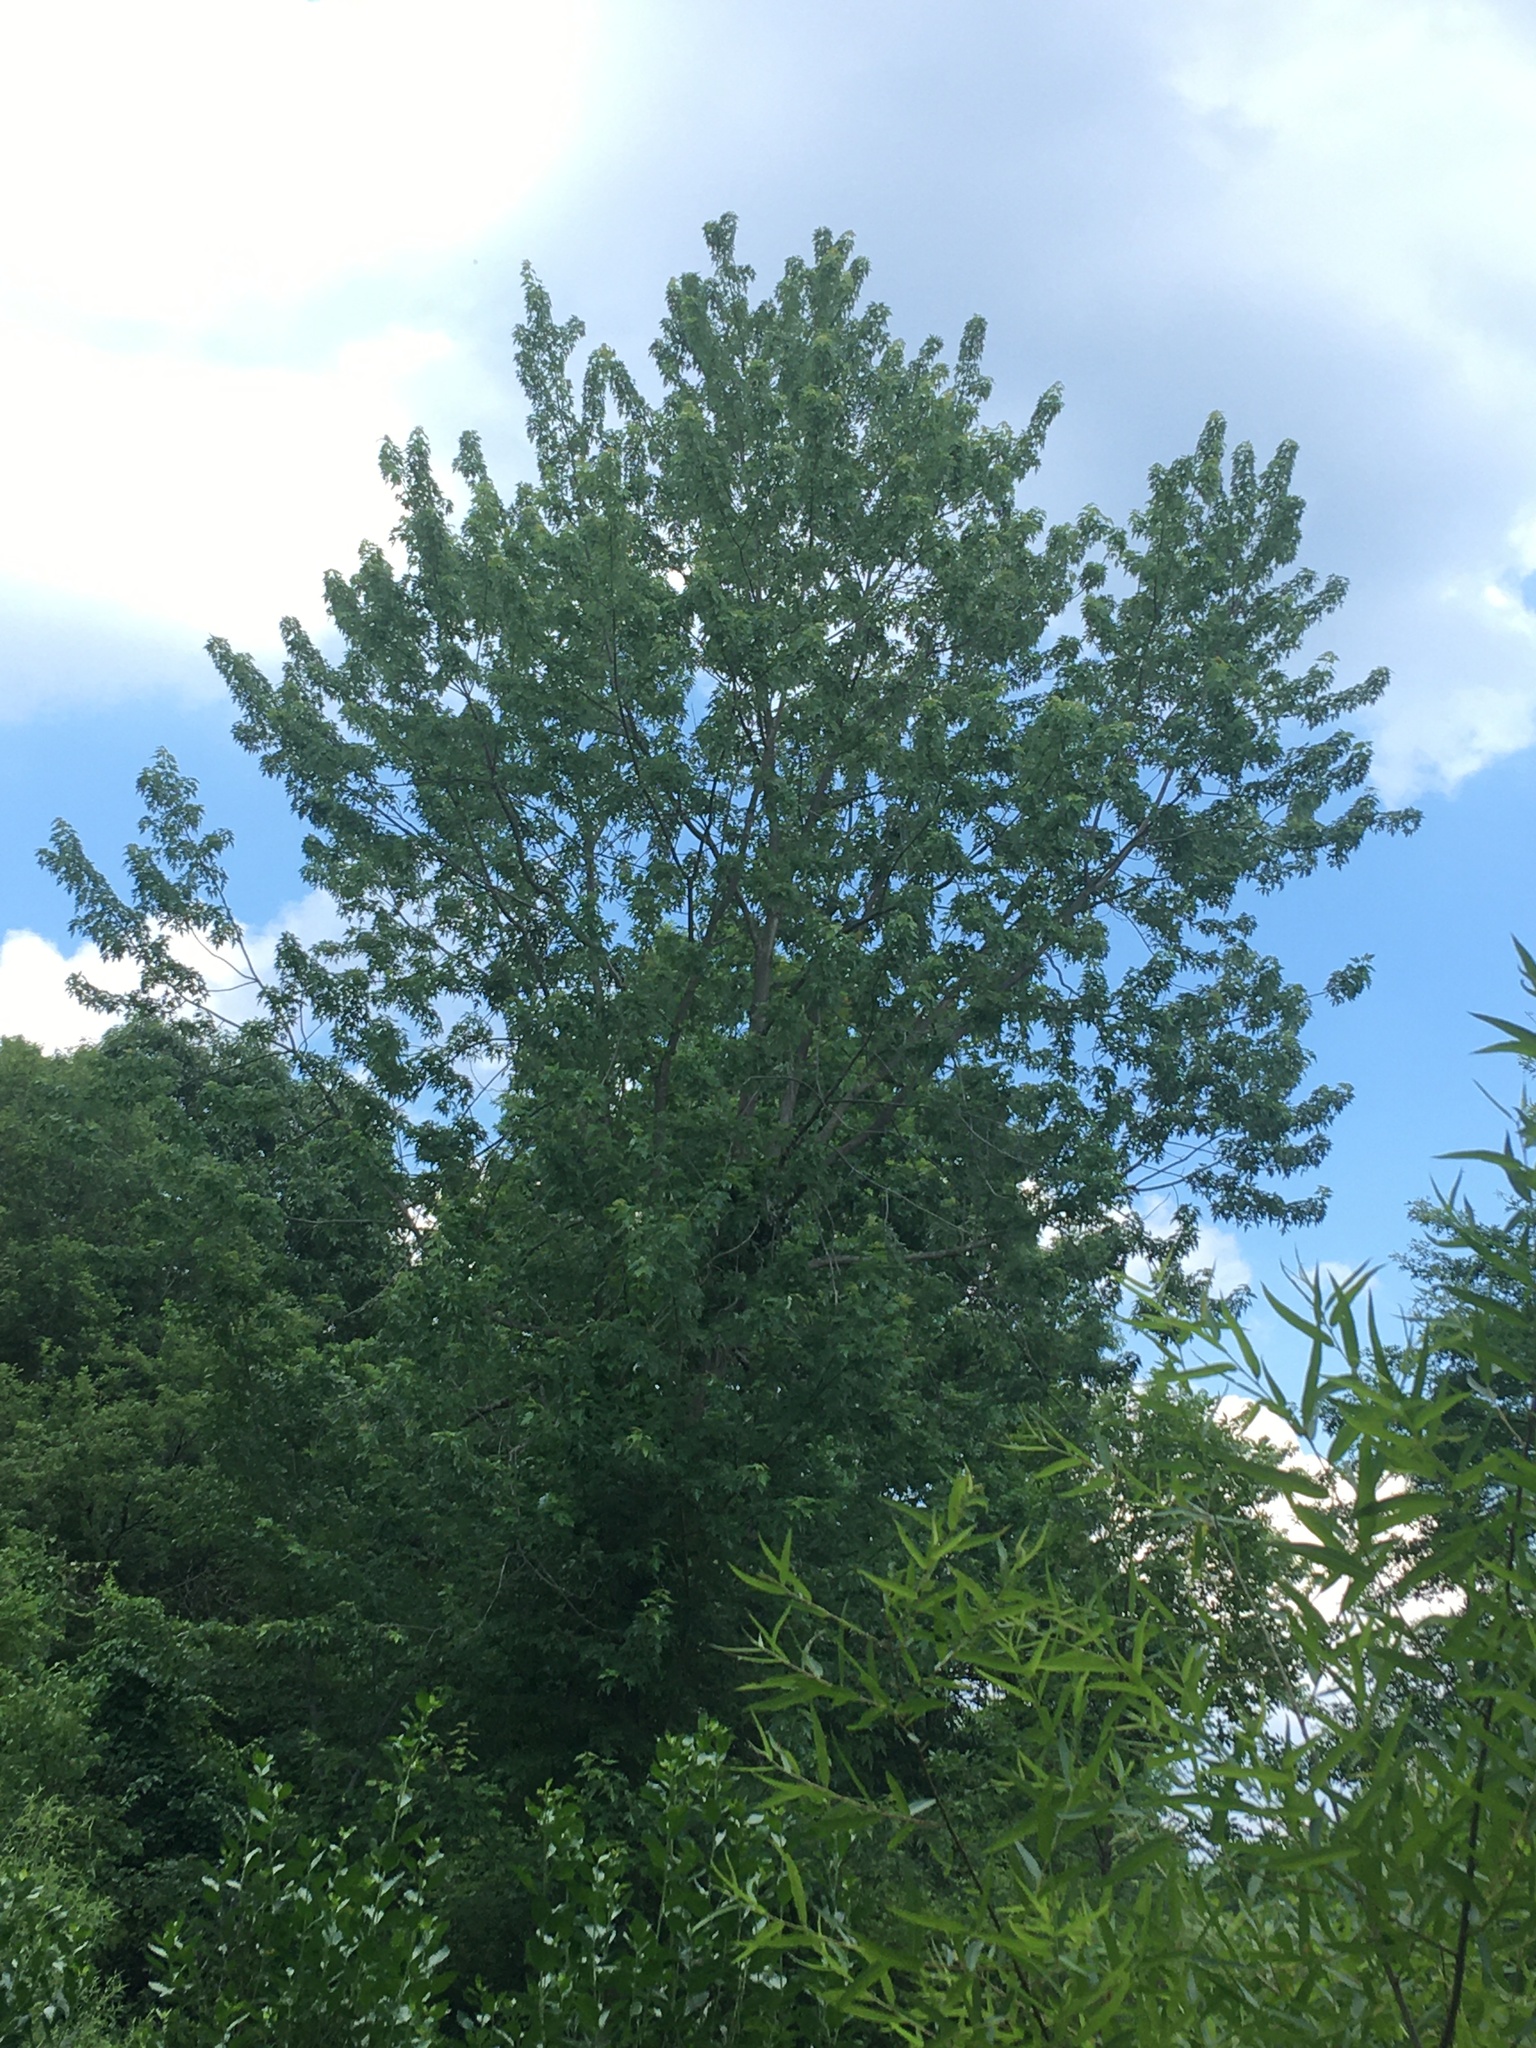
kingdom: Plantae
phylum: Tracheophyta
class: Magnoliopsida
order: Sapindales
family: Sapindaceae
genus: Acer
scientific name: Acer saccharinum
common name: Silver maple
